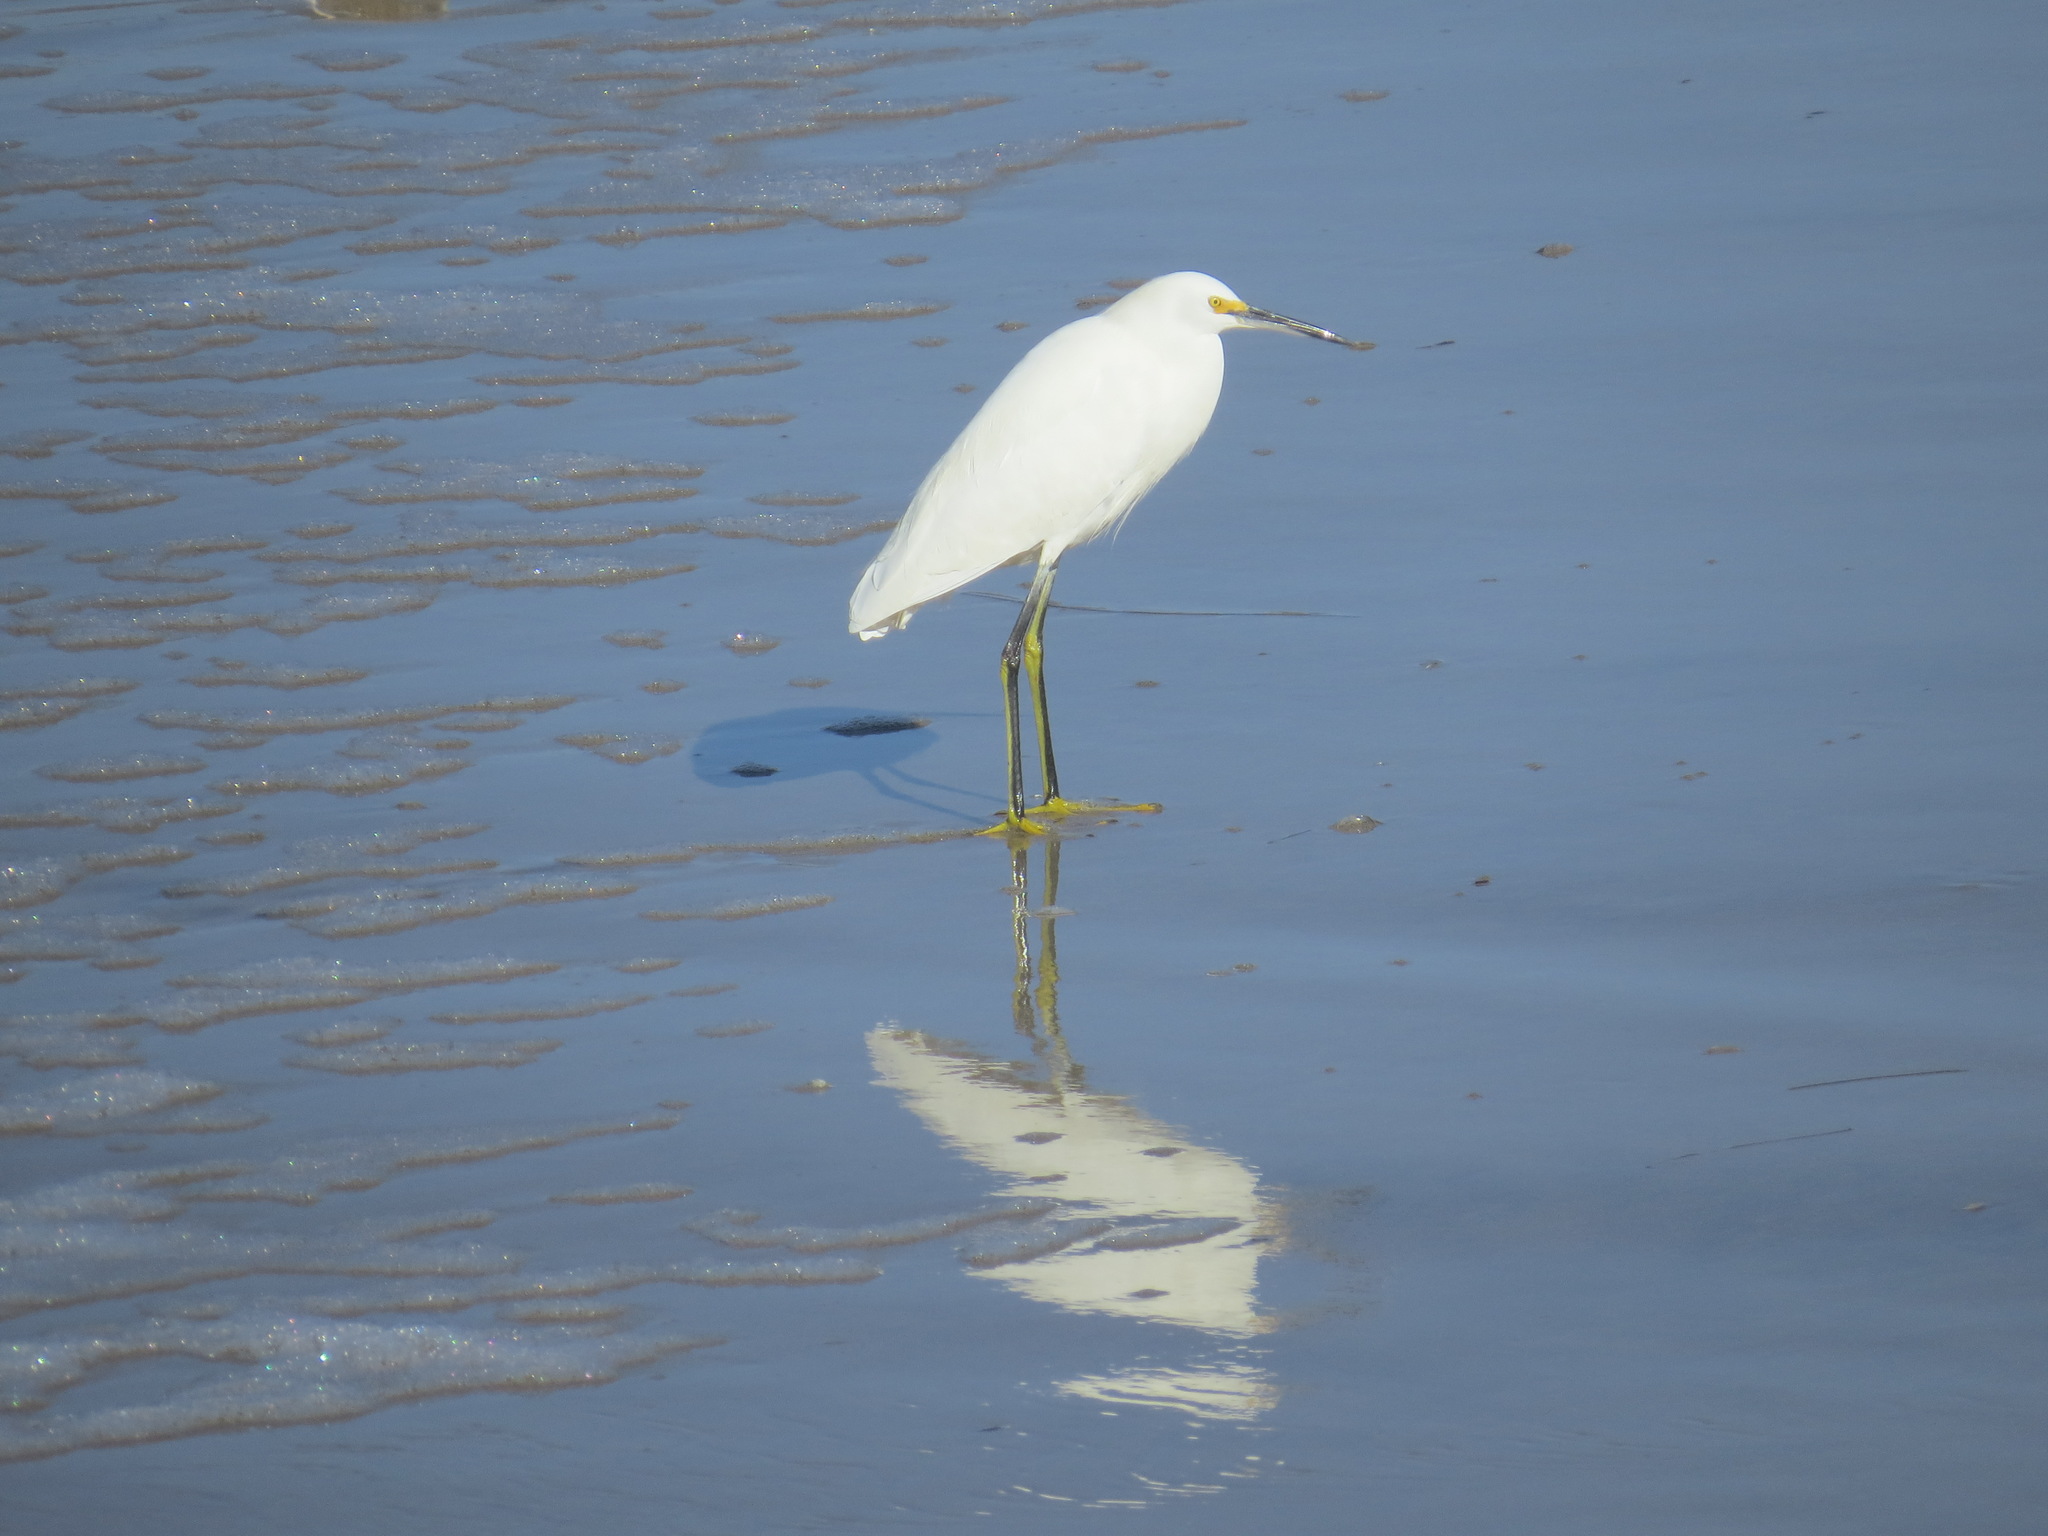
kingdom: Animalia
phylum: Chordata
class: Aves
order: Pelecaniformes
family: Ardeidae
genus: Egretta
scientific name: Egretta thula
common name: Snowy egret
